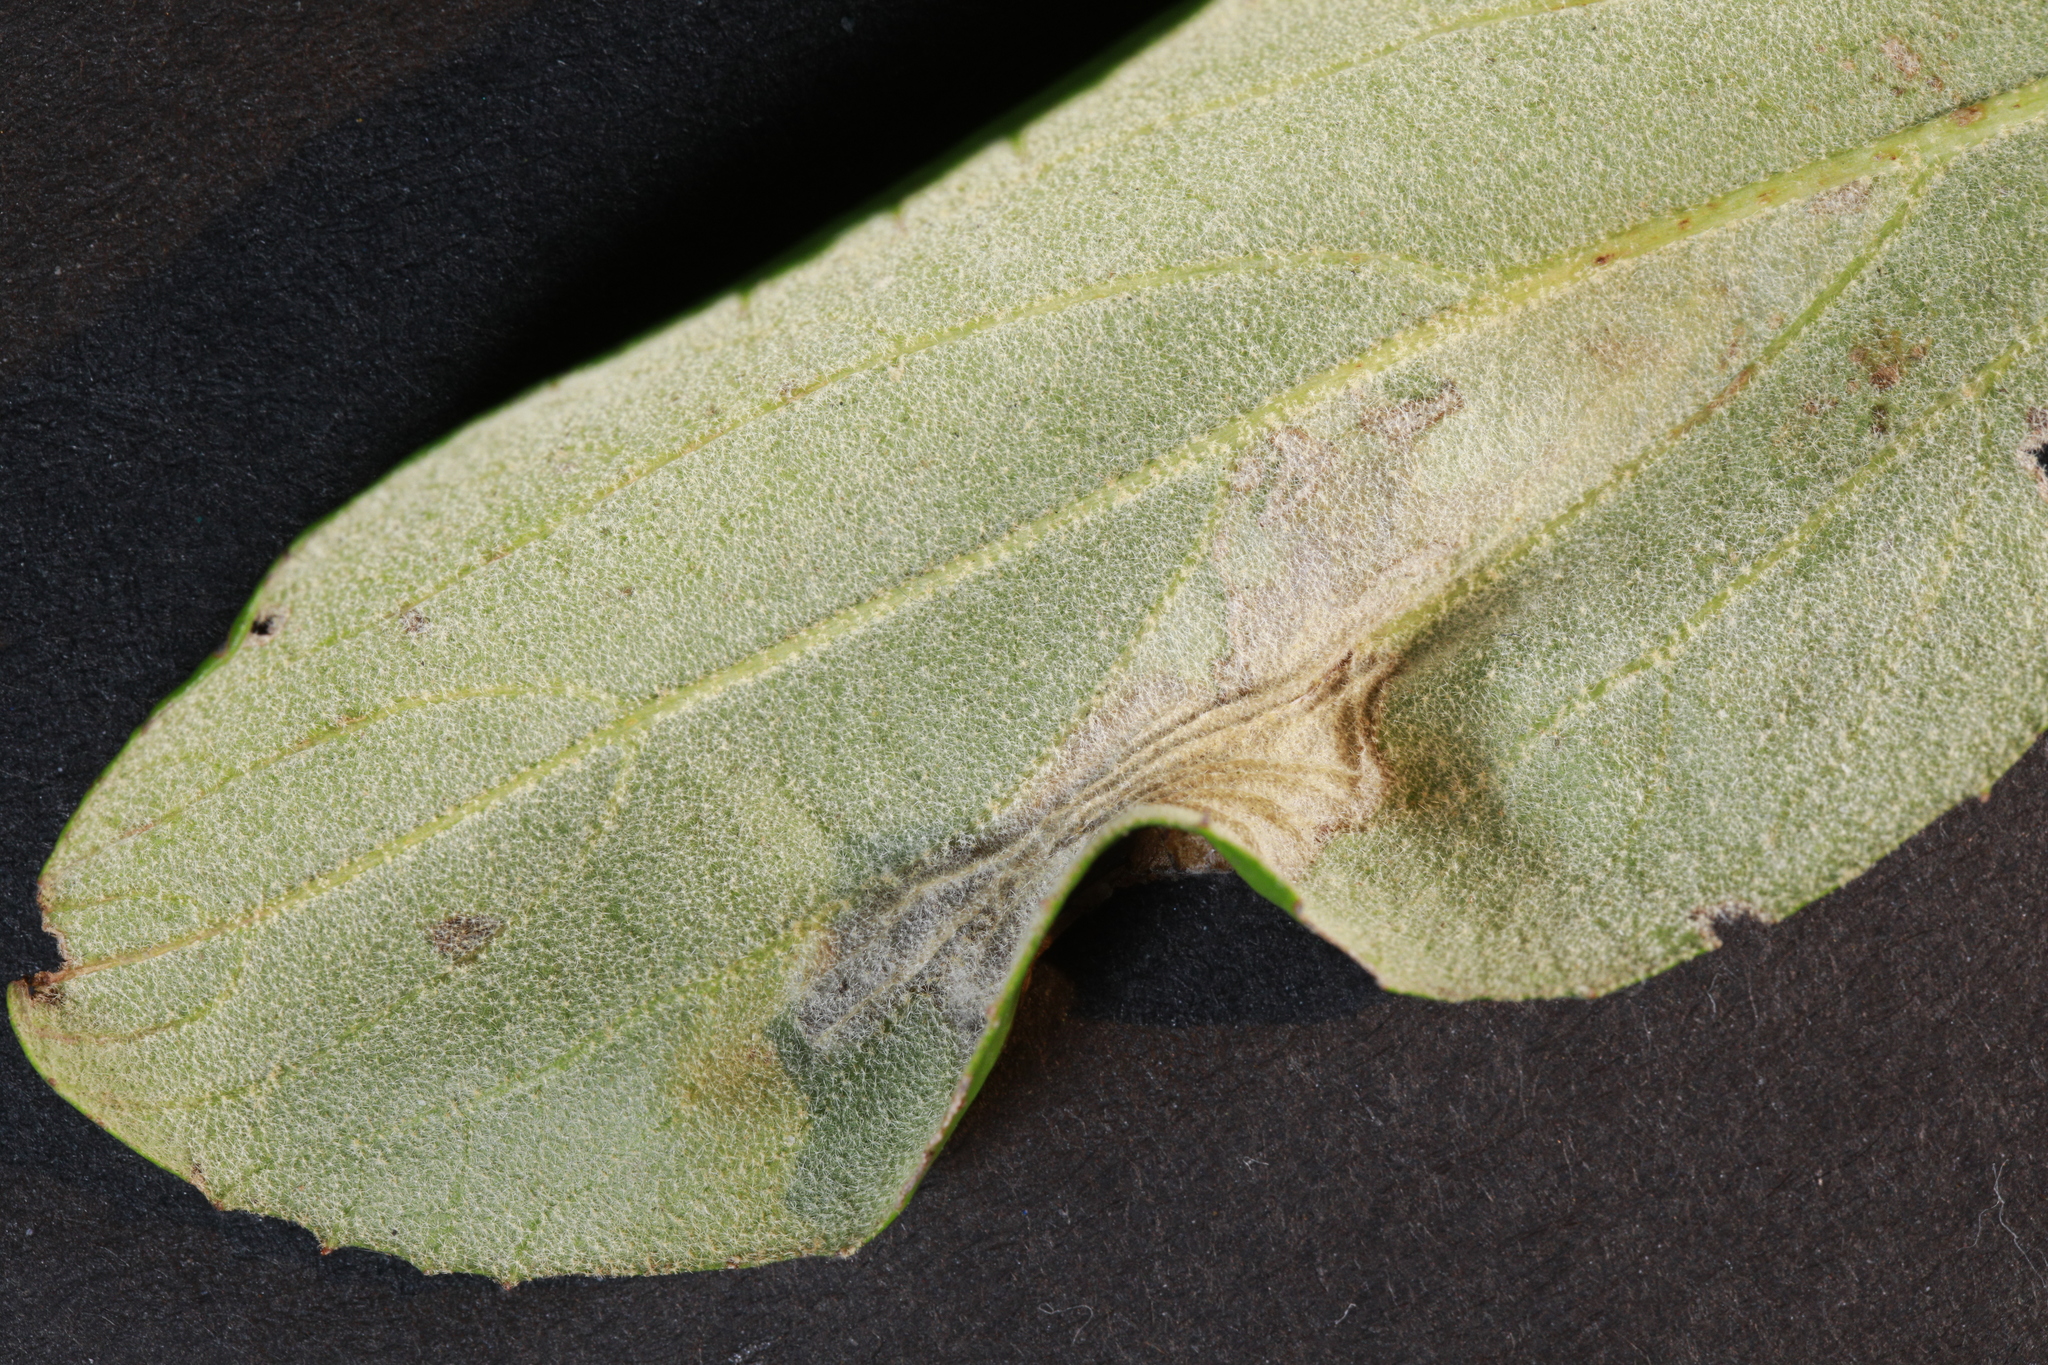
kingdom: Animalia
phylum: Arthropoda
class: Insecta
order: Lepidoptera
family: Gracillariidae
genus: Phyllonorycter
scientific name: Phyllonorycter lantanella
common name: Viburnum midget
